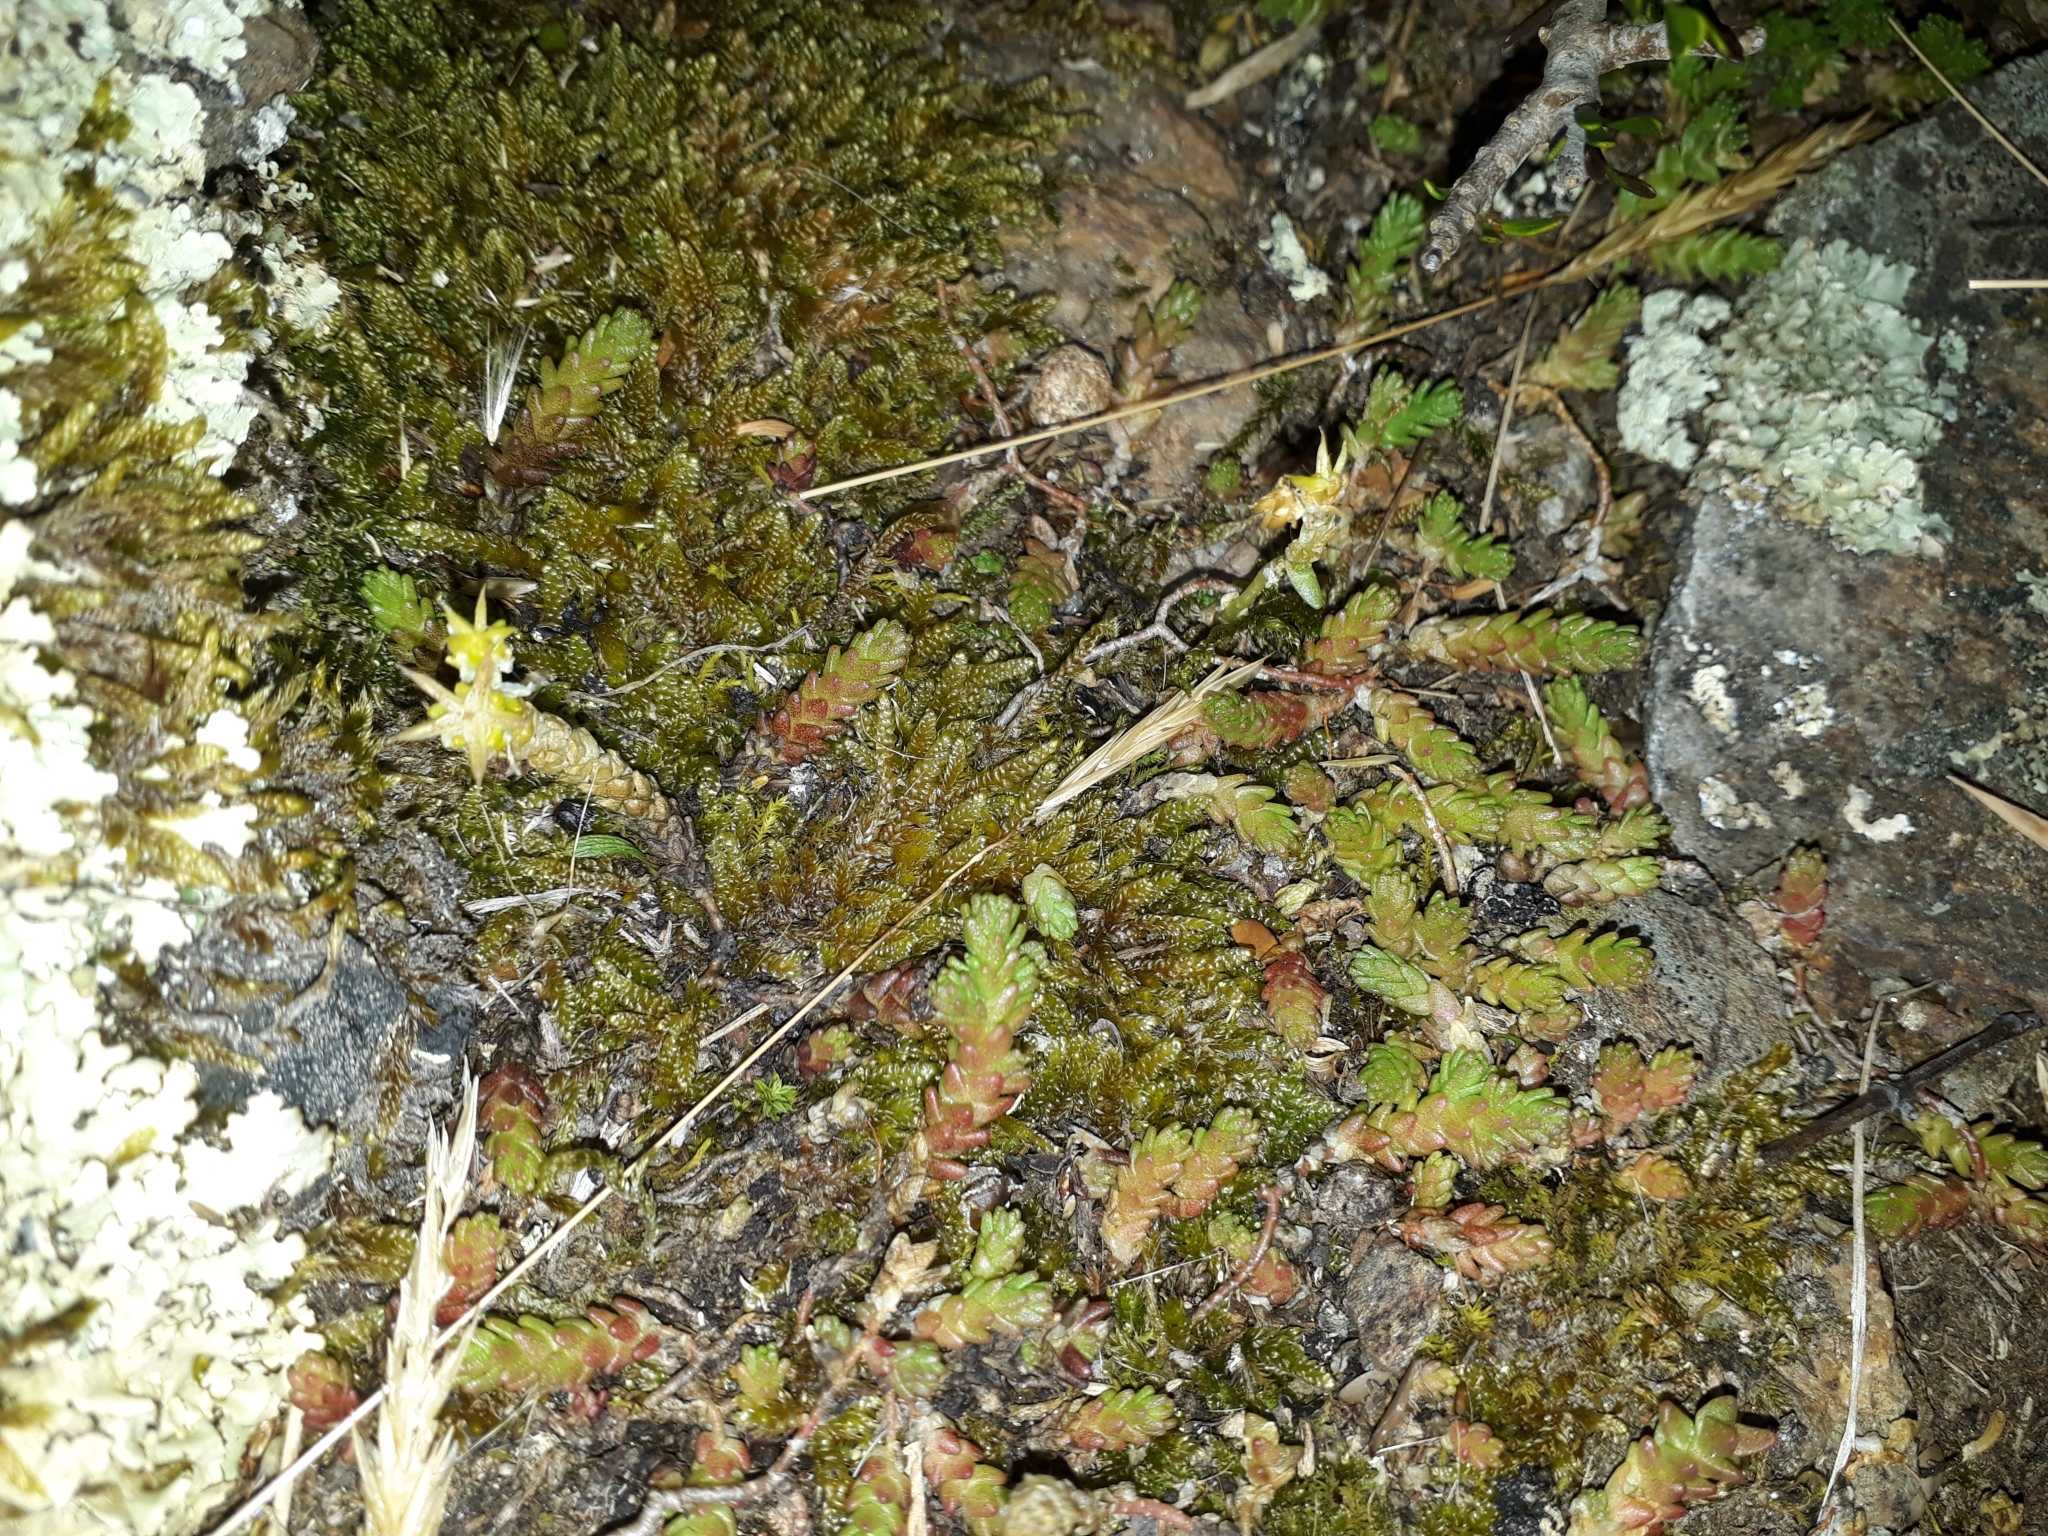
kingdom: Plantae
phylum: Tracheophyta
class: Magnoliopsida
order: Saxifragales
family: Crassulaceae
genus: Sedum
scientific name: Sedum acre
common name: Biting stonecrop
